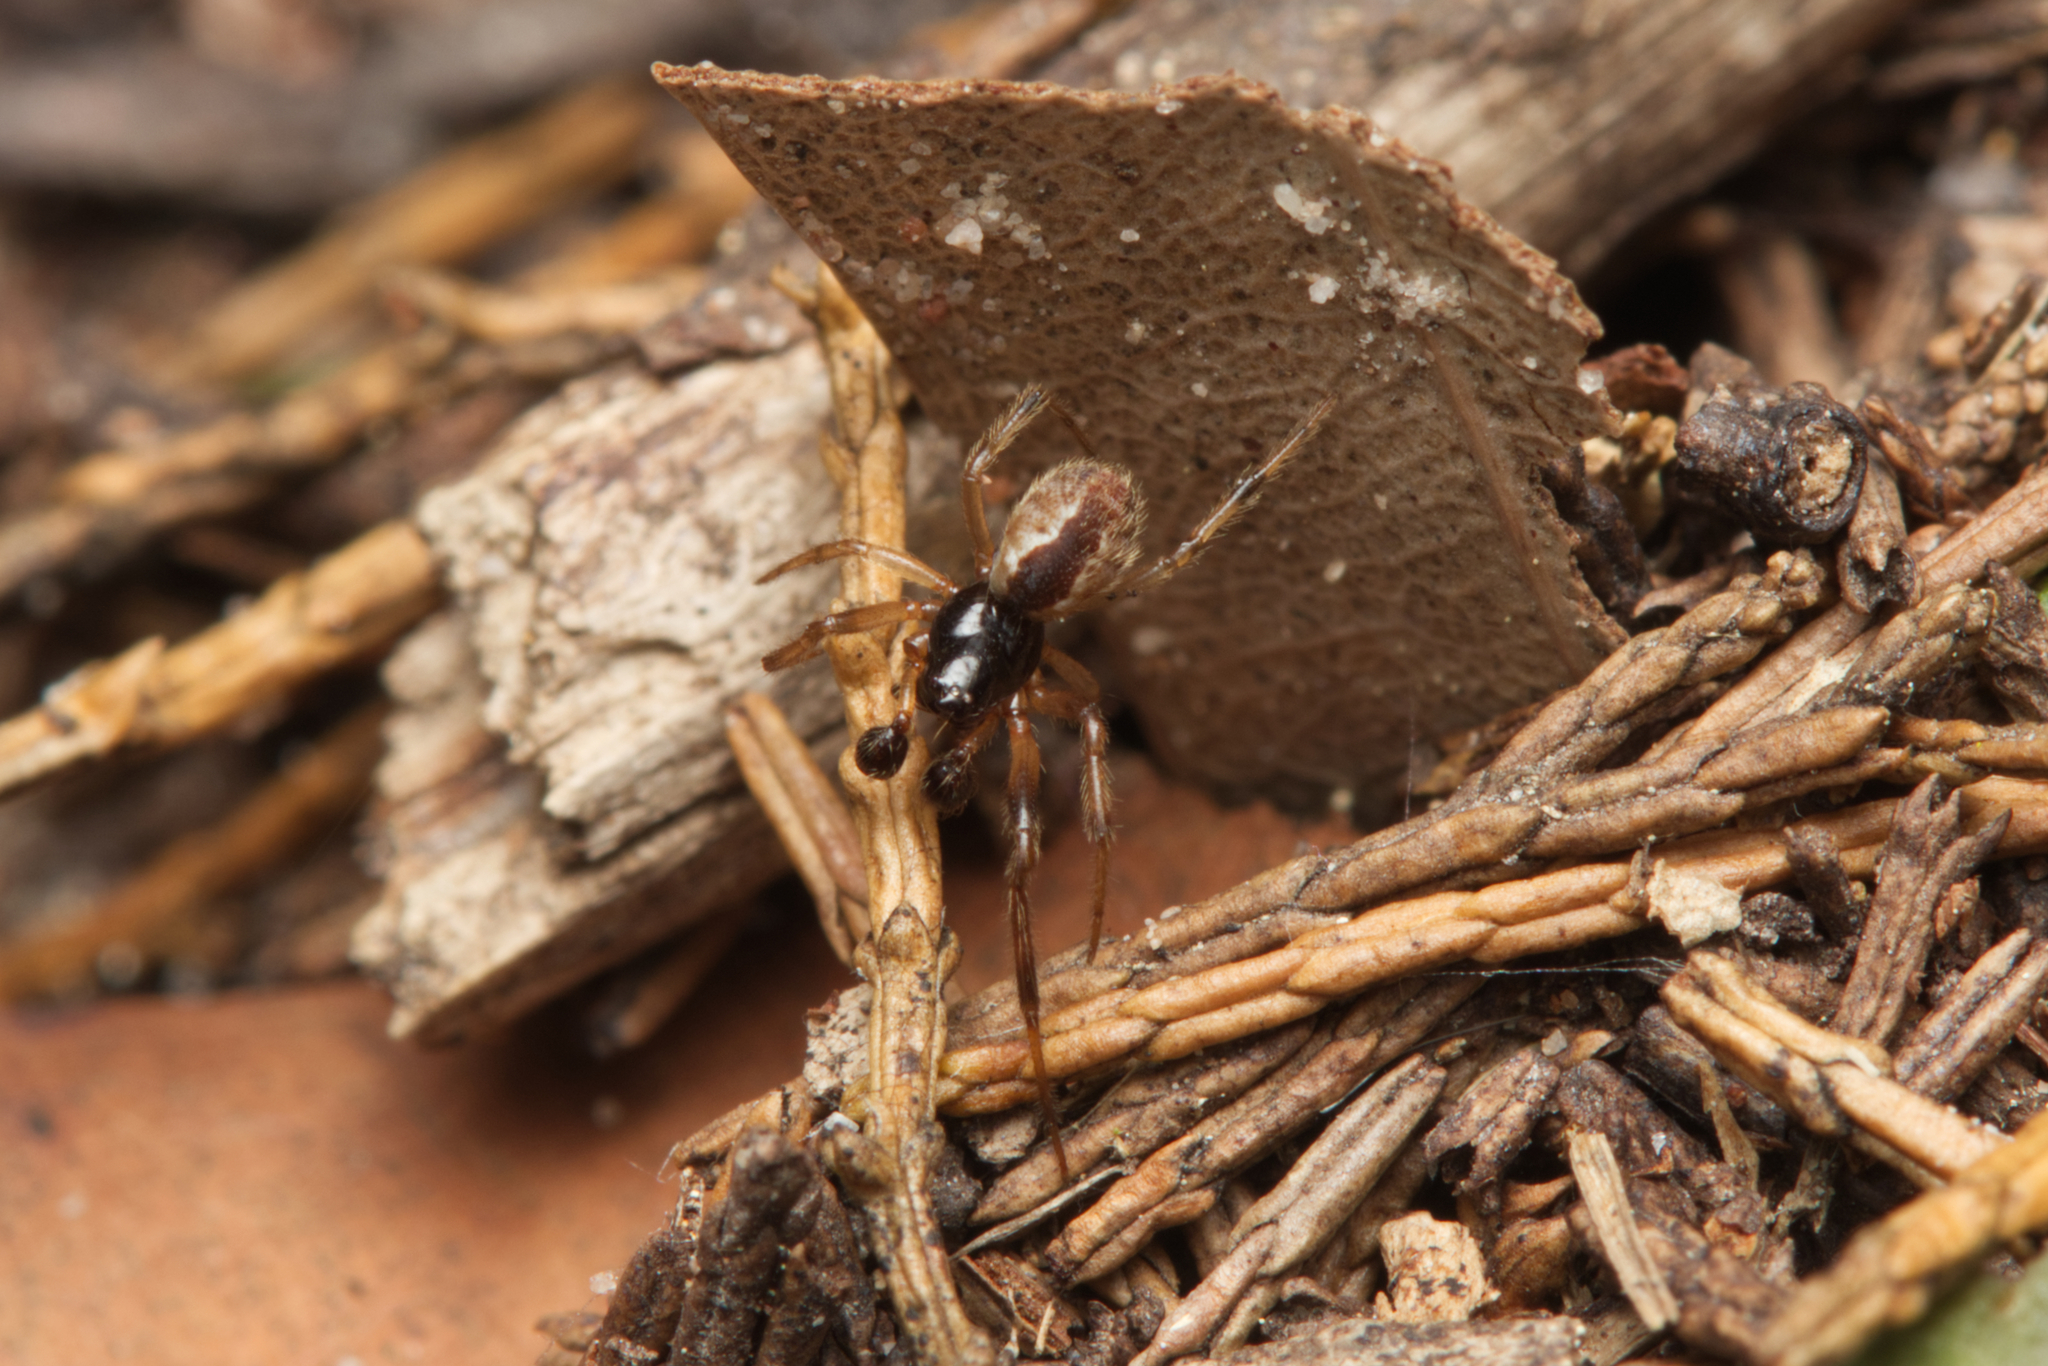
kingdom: Animalia
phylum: Arthropoda
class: Arachnida
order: Araneae
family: Theridiidae
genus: Theridion
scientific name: Theridion theridioides
